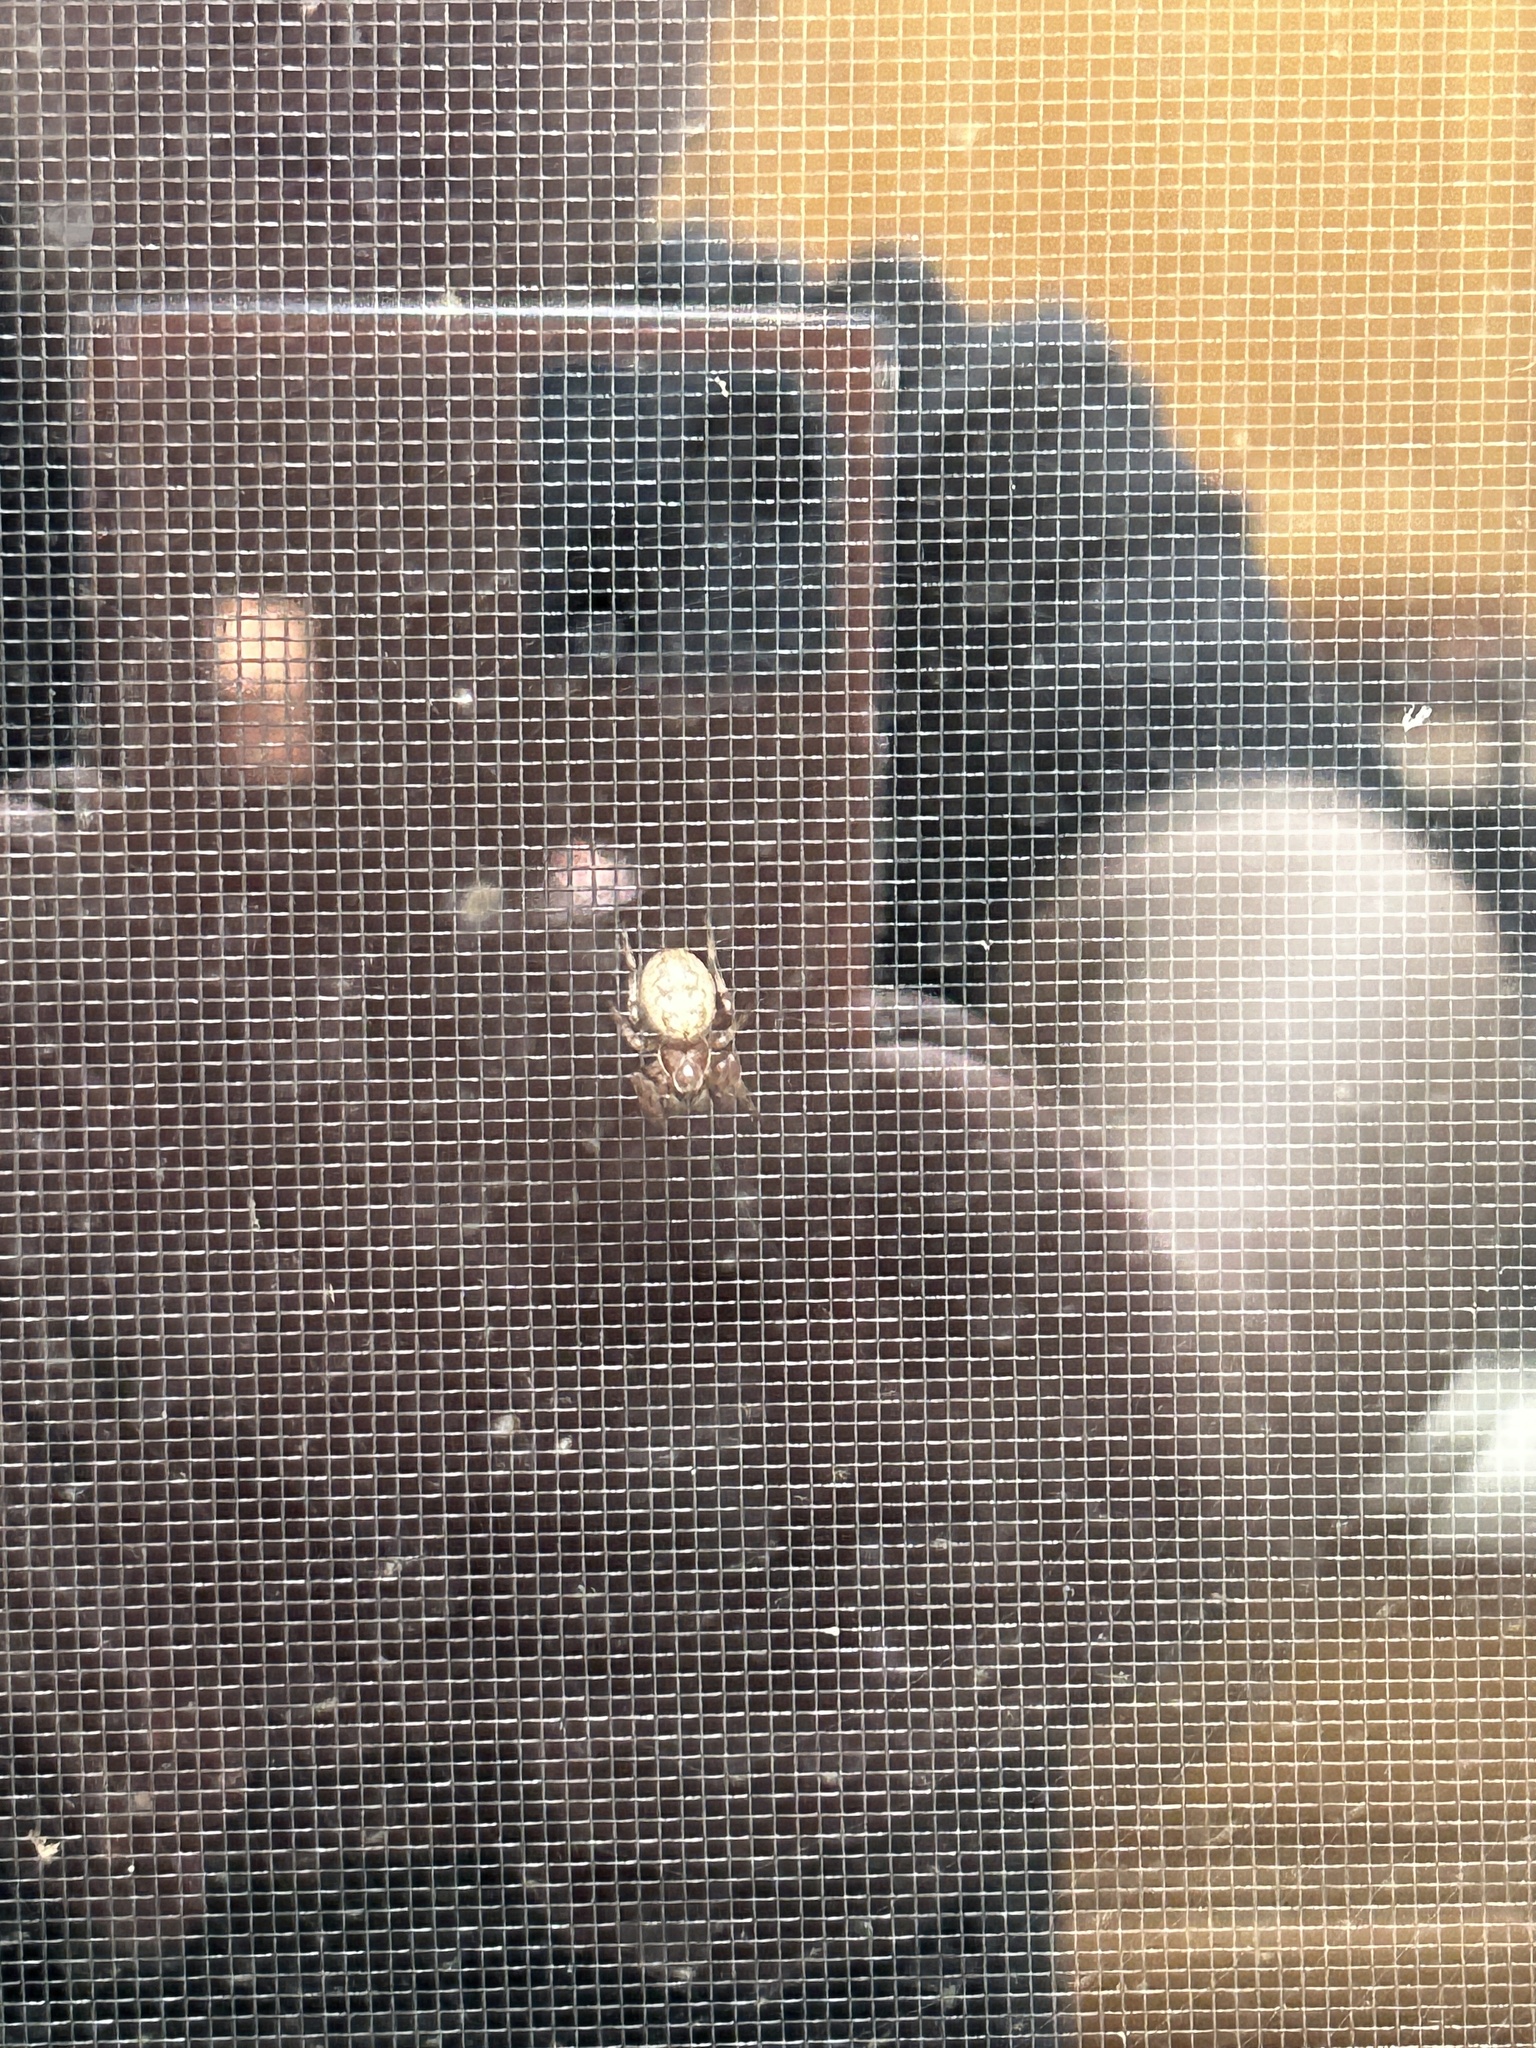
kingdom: Animalia
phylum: Arthropoda
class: Arachnida
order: Araneae
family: Araneidae
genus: Larinioides
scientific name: Larinioides cornutus
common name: Furrow orbweaver
